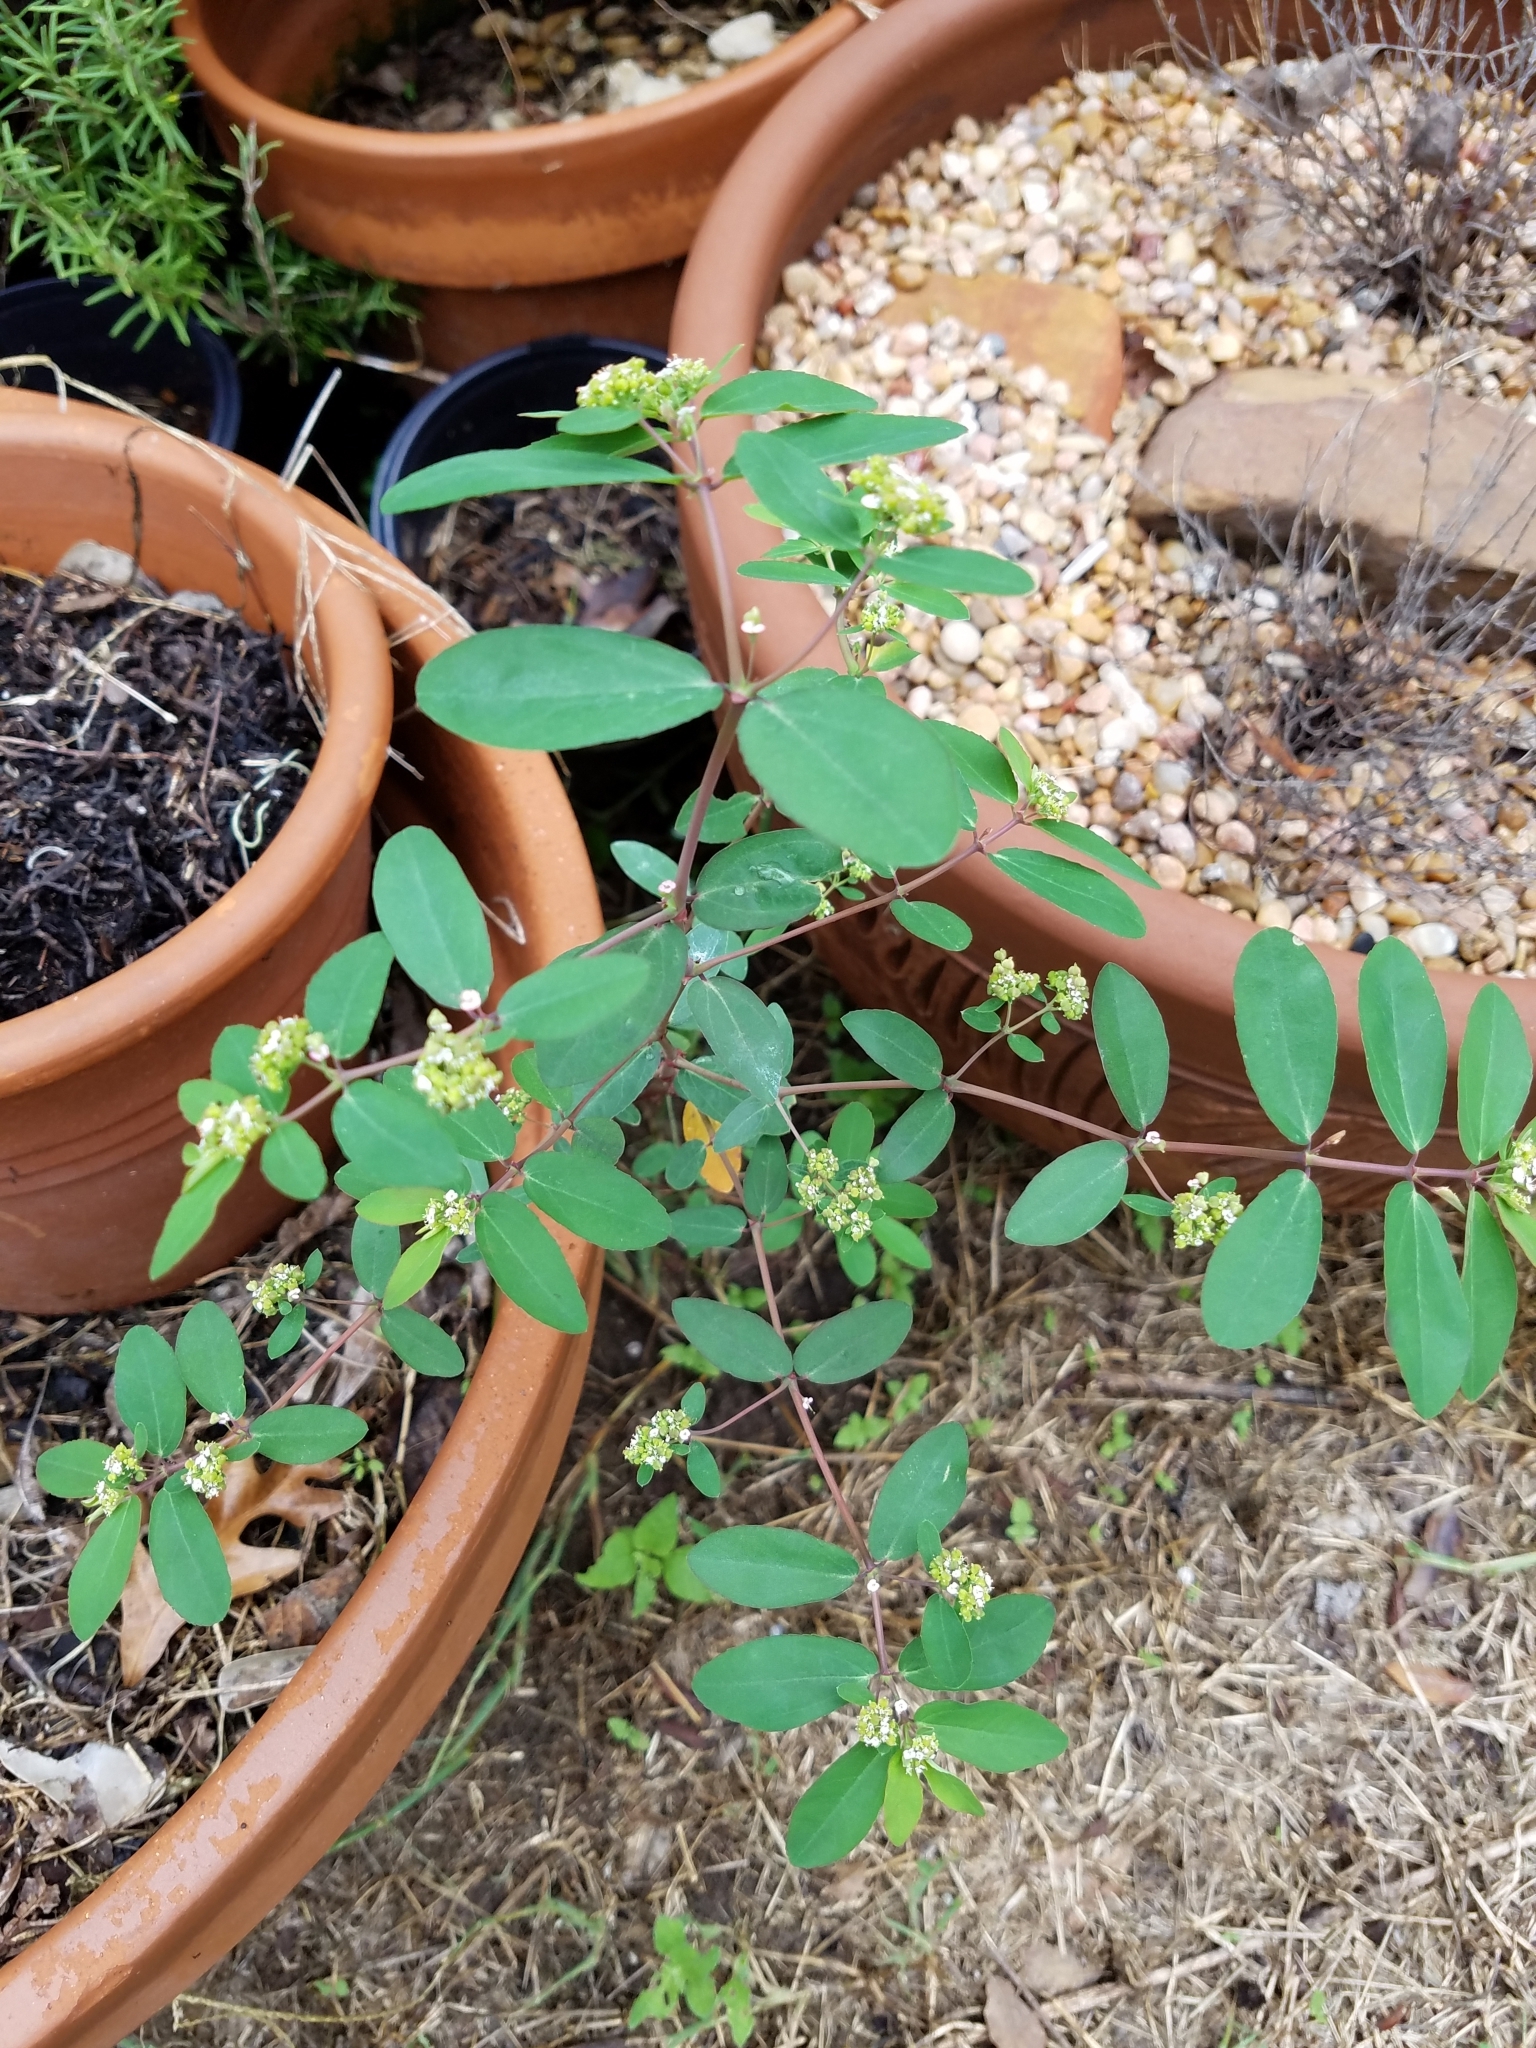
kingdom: Plantae
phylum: Tracheophyta
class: Magnoliopsida
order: Malpighiales
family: Euphorbiaceae
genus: Euphorbia
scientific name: Euphorbia hypericifolia
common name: Graceful sandmat
